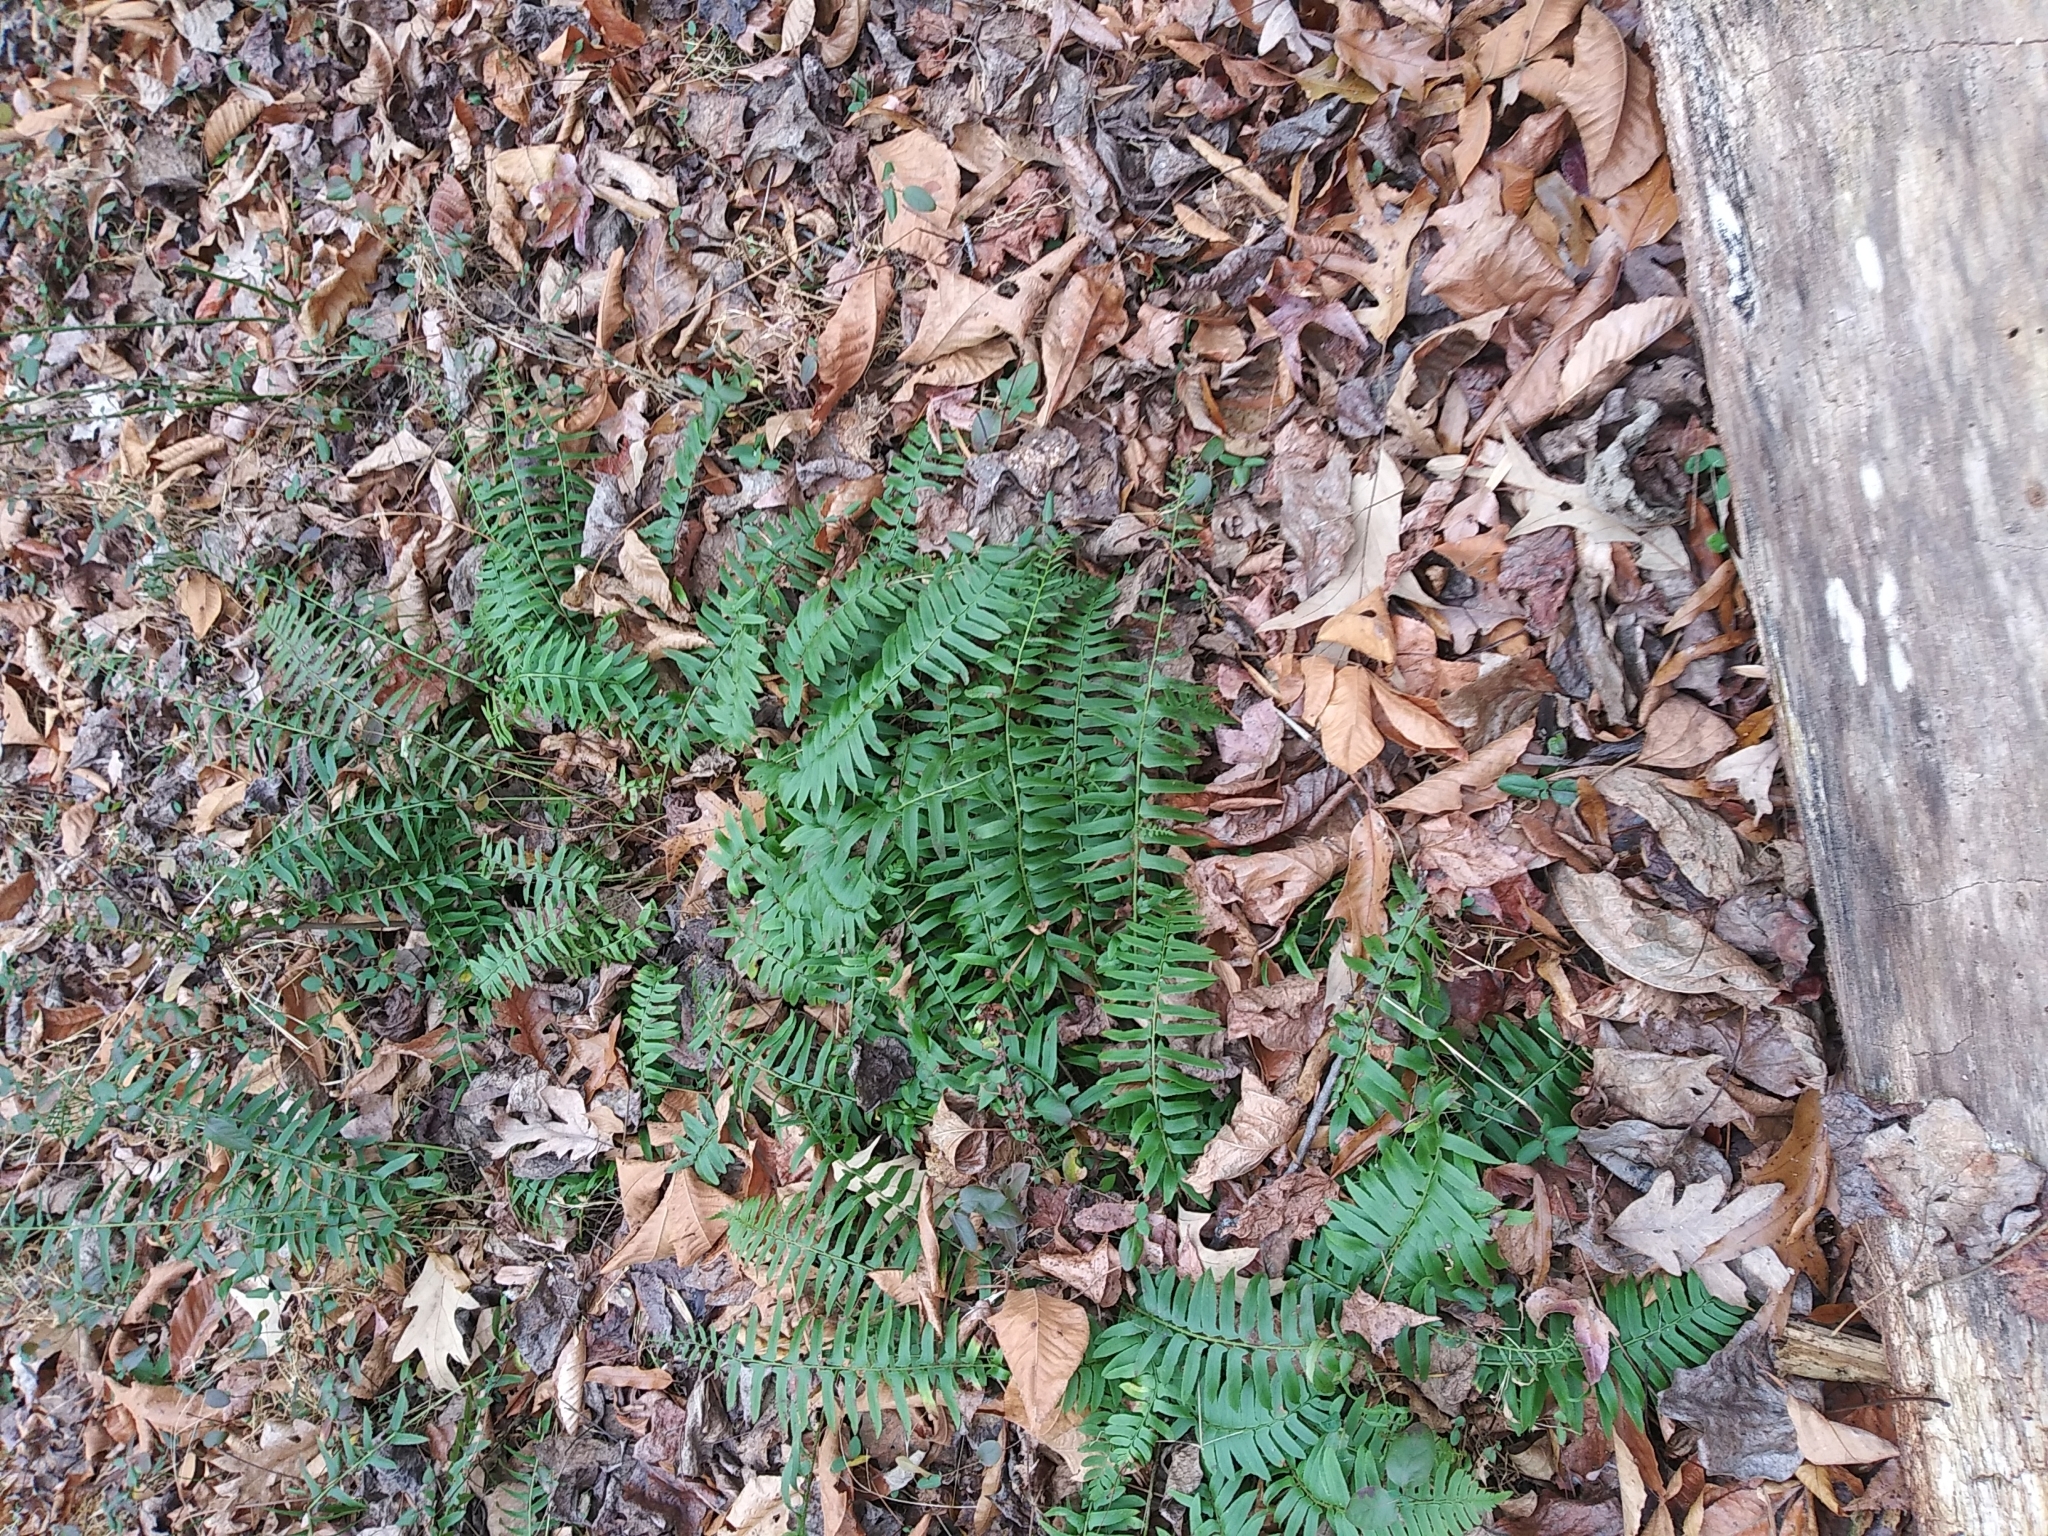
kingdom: Plantae
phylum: Tracheophyta
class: Polypodiopsida
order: Polypodiales
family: Dryopteridaceae
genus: Polystichum
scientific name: Polystichum acrostichoides
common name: Christmas fern
